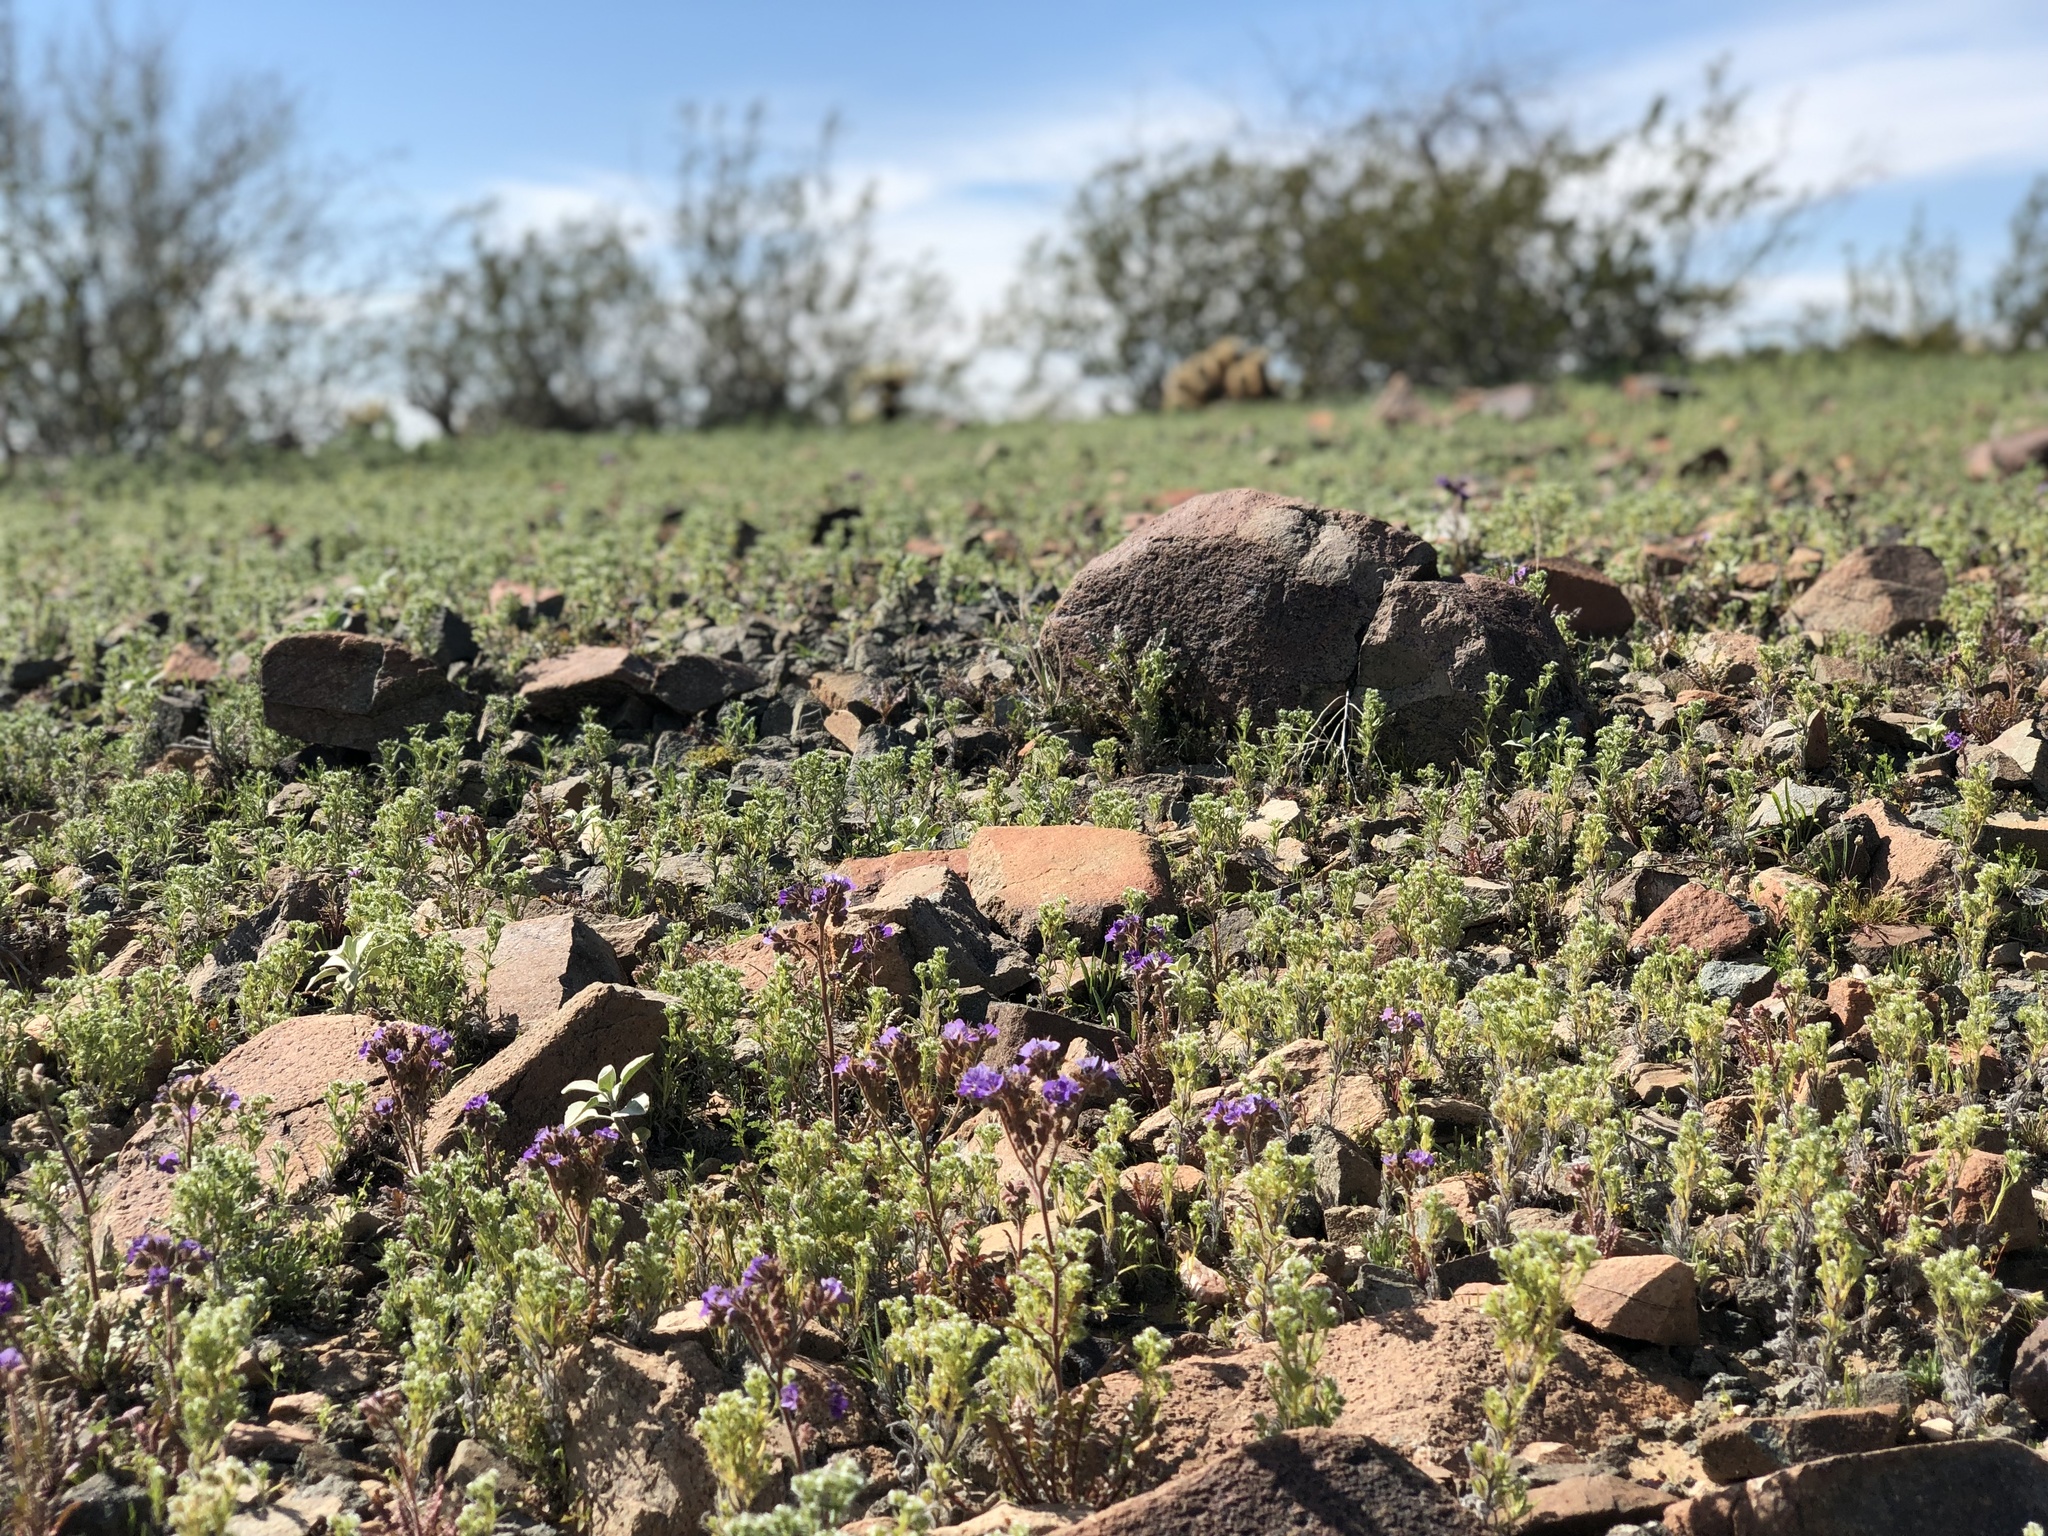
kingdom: Plantae
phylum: Tracheophyta
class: Magnoliopsida
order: Boraginales
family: Hydrophyllaceae
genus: Phacelia
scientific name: Phacelia crenulata
